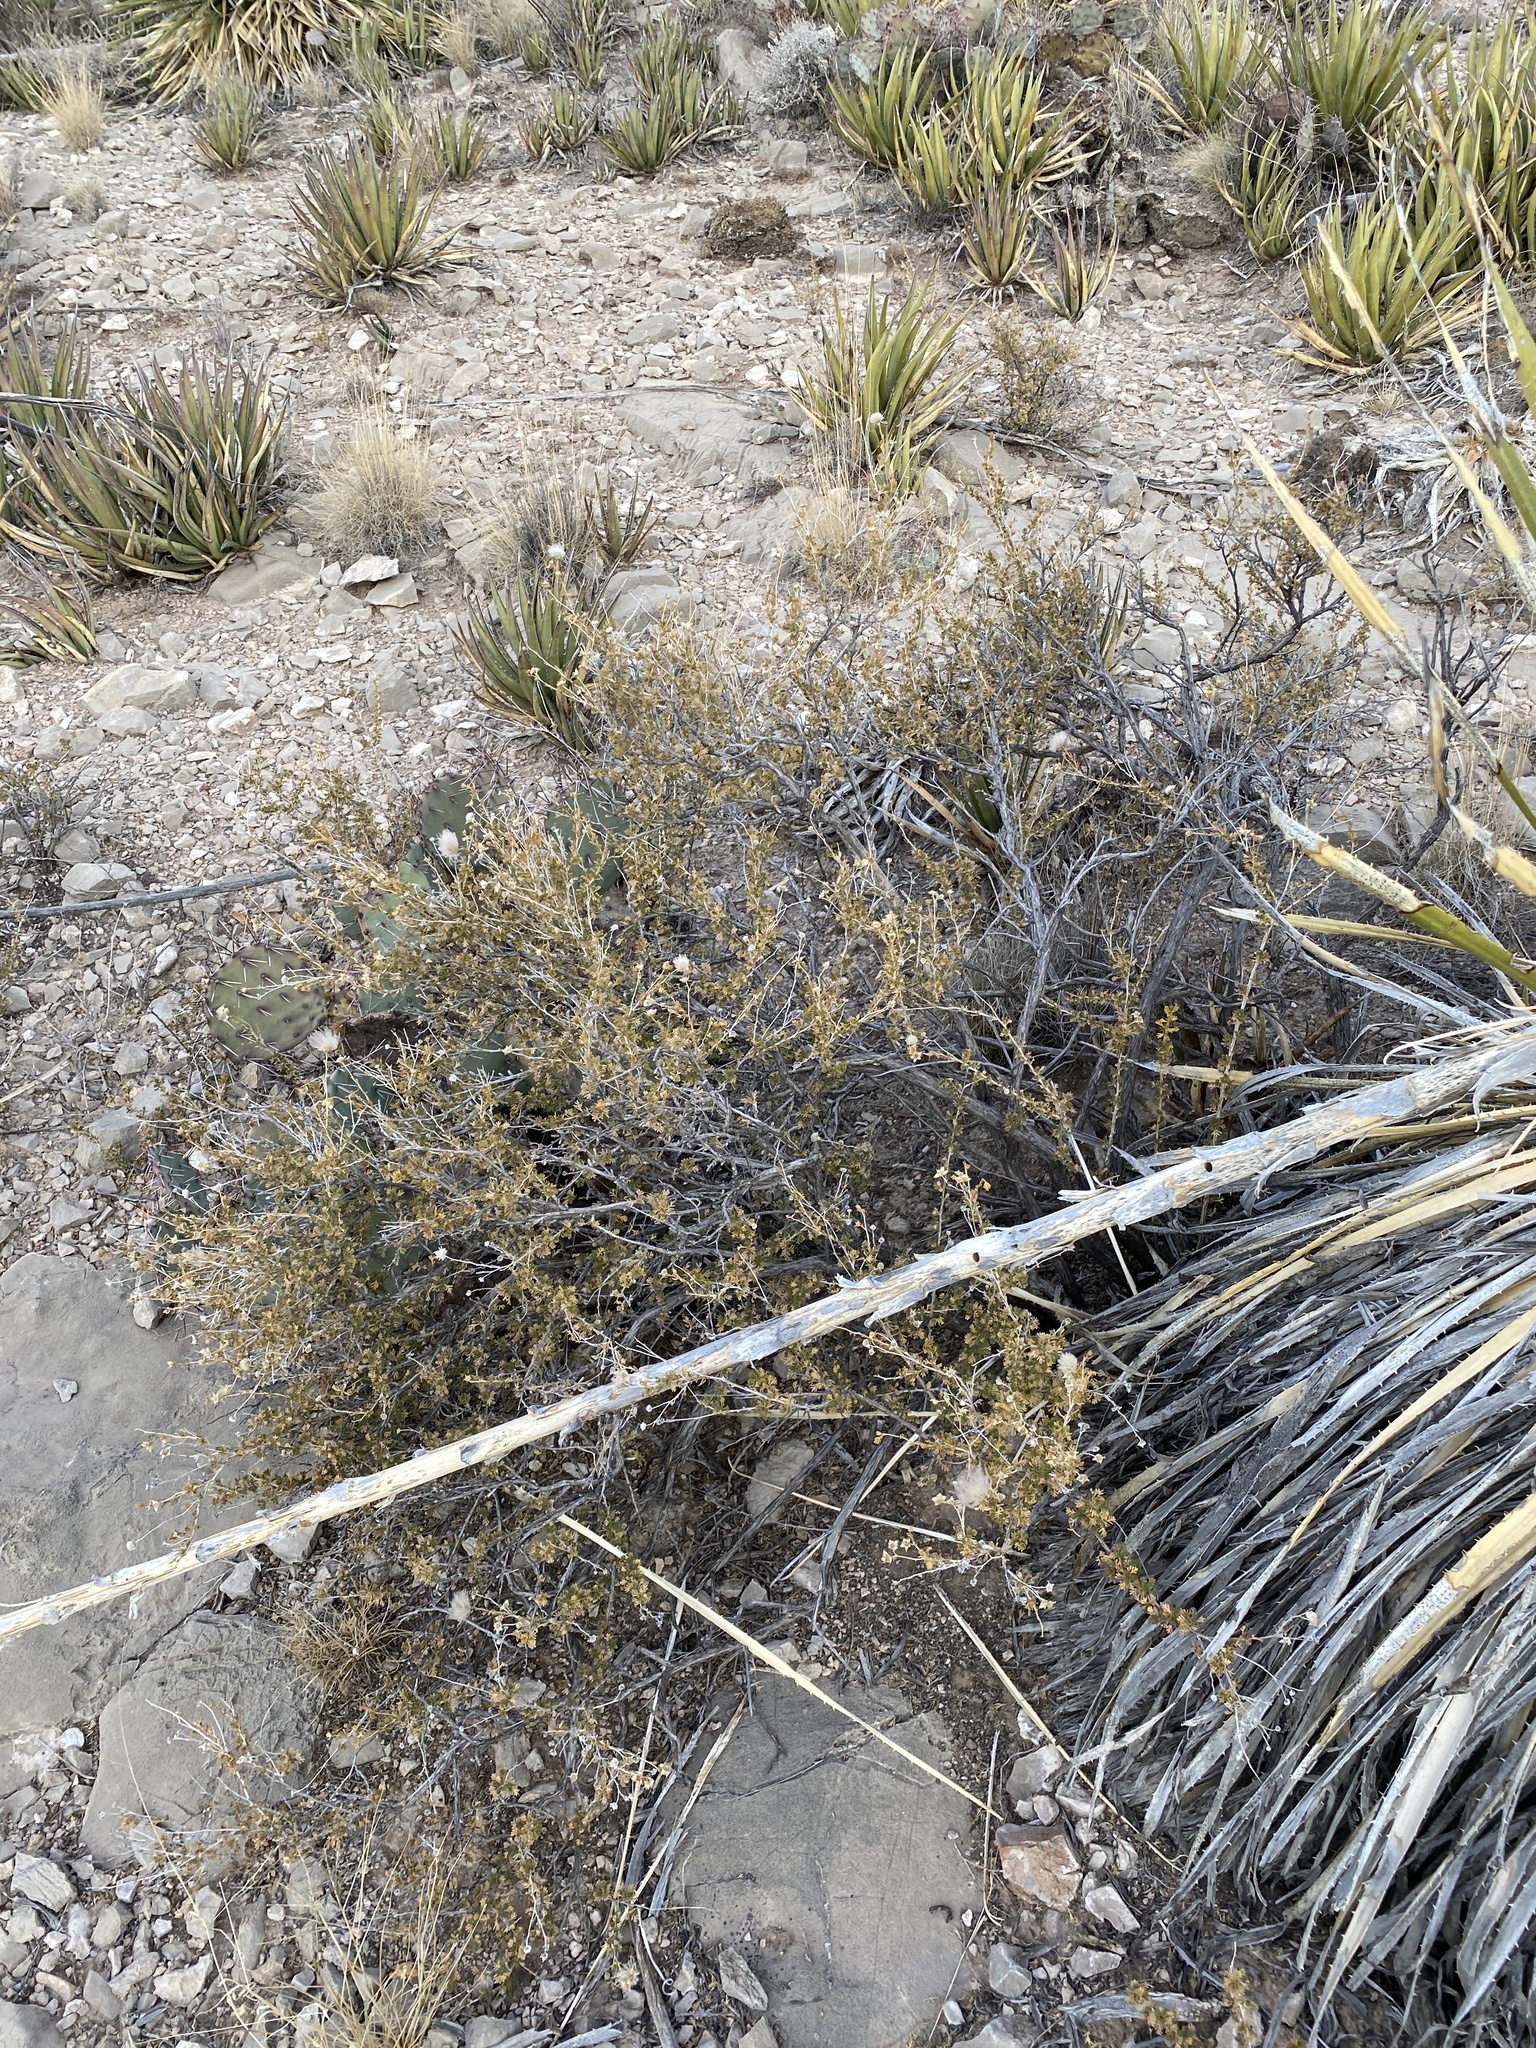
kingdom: Plantae
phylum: Tracheophyta
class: Magnoliopsida
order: Rosales
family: Rosaceae
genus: Fallugia
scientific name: Fallugia paradoxa
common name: Apache-plume
